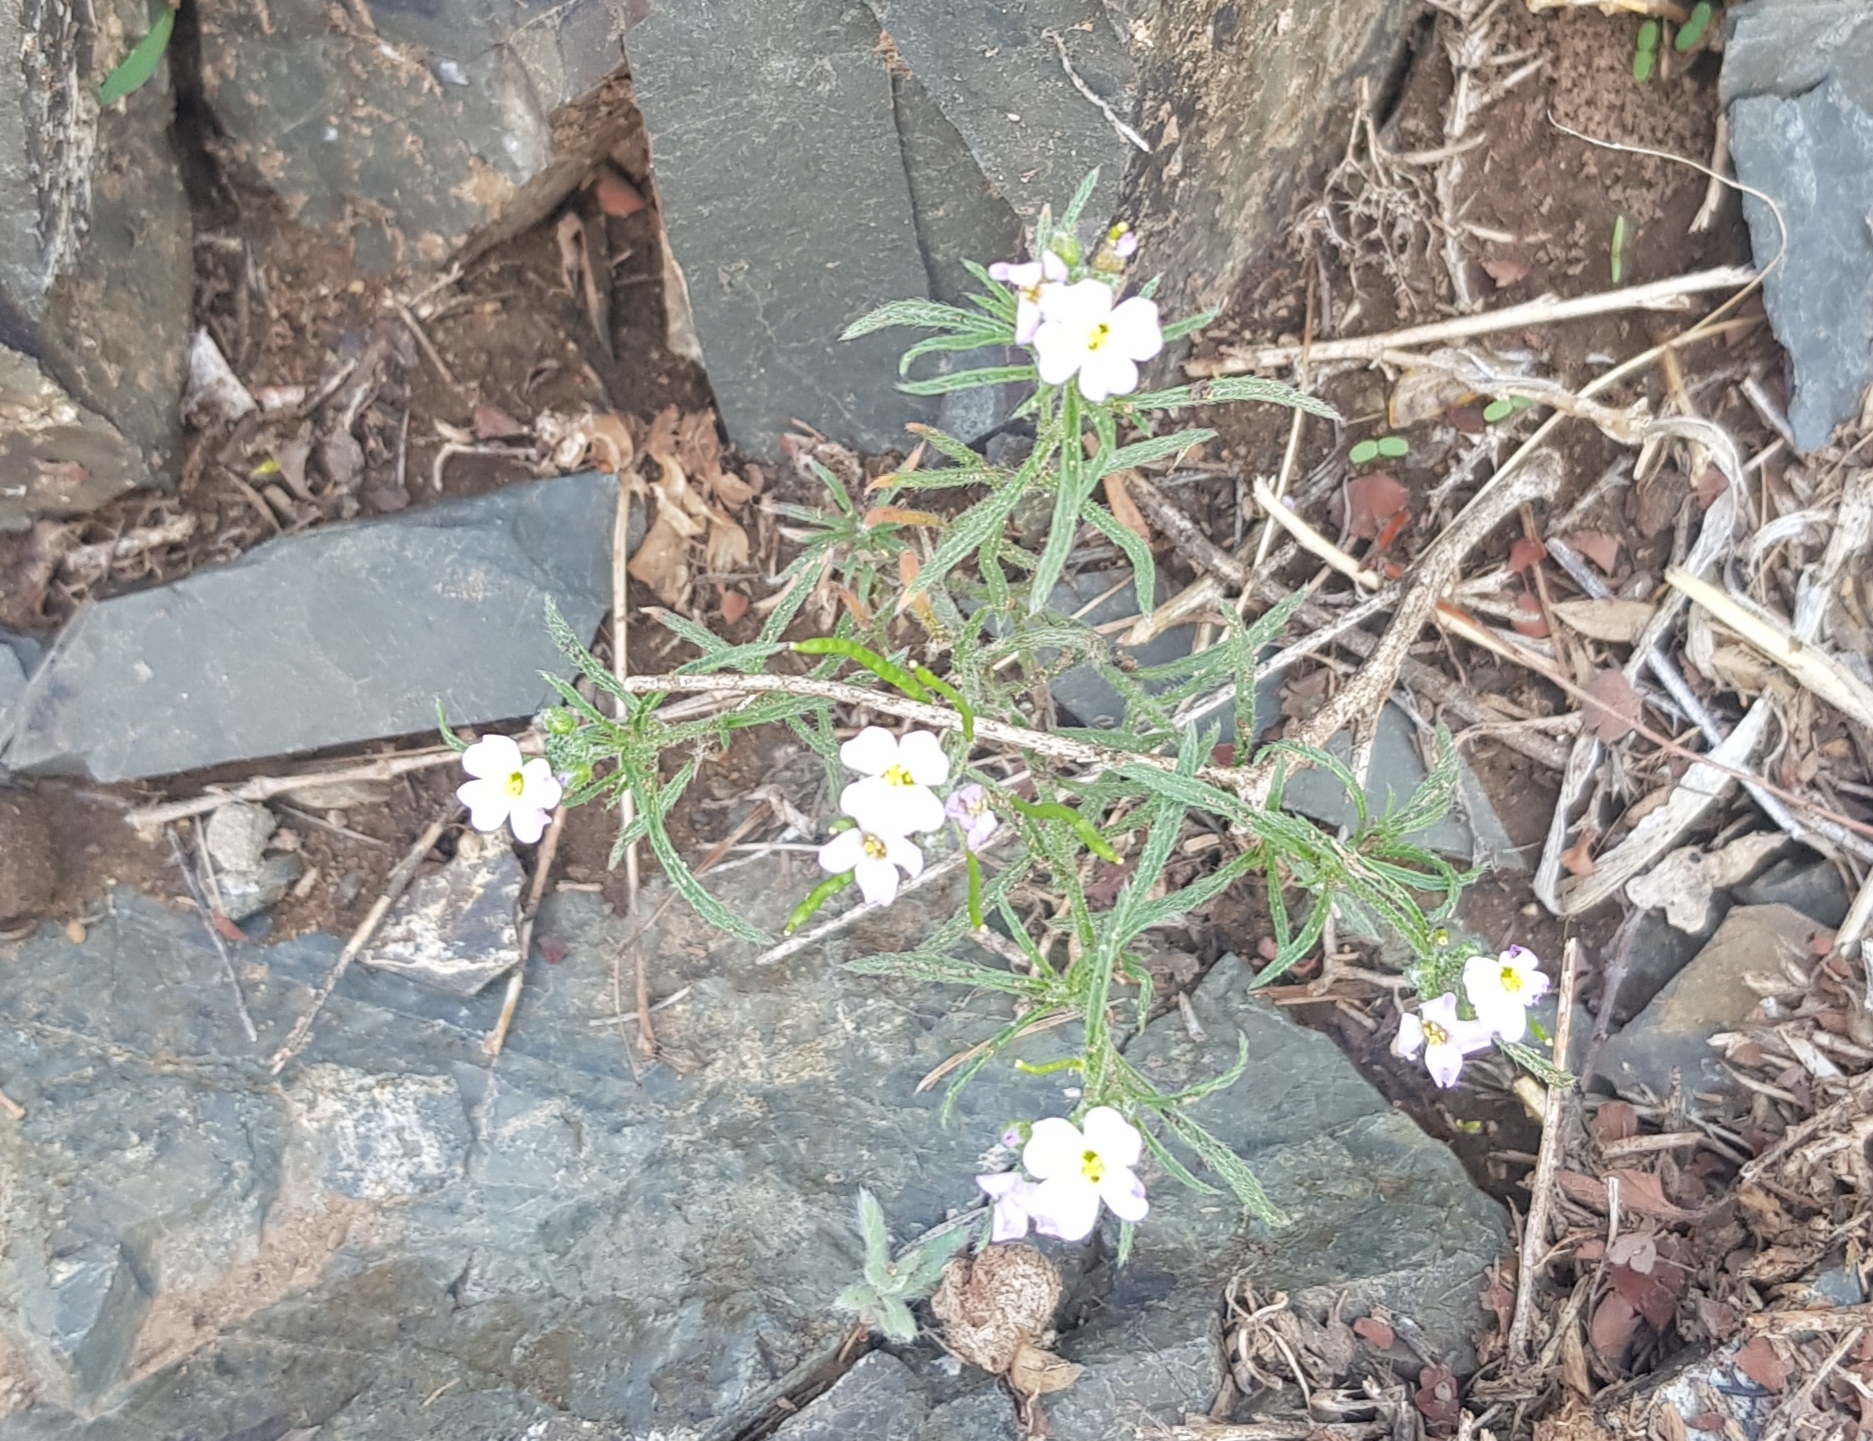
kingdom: Plantae
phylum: Tracheophyta
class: Magnoliopsida
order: Brassicales
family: Brassicaceae
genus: Dontostemon
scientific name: Dontostemon integrifolius
